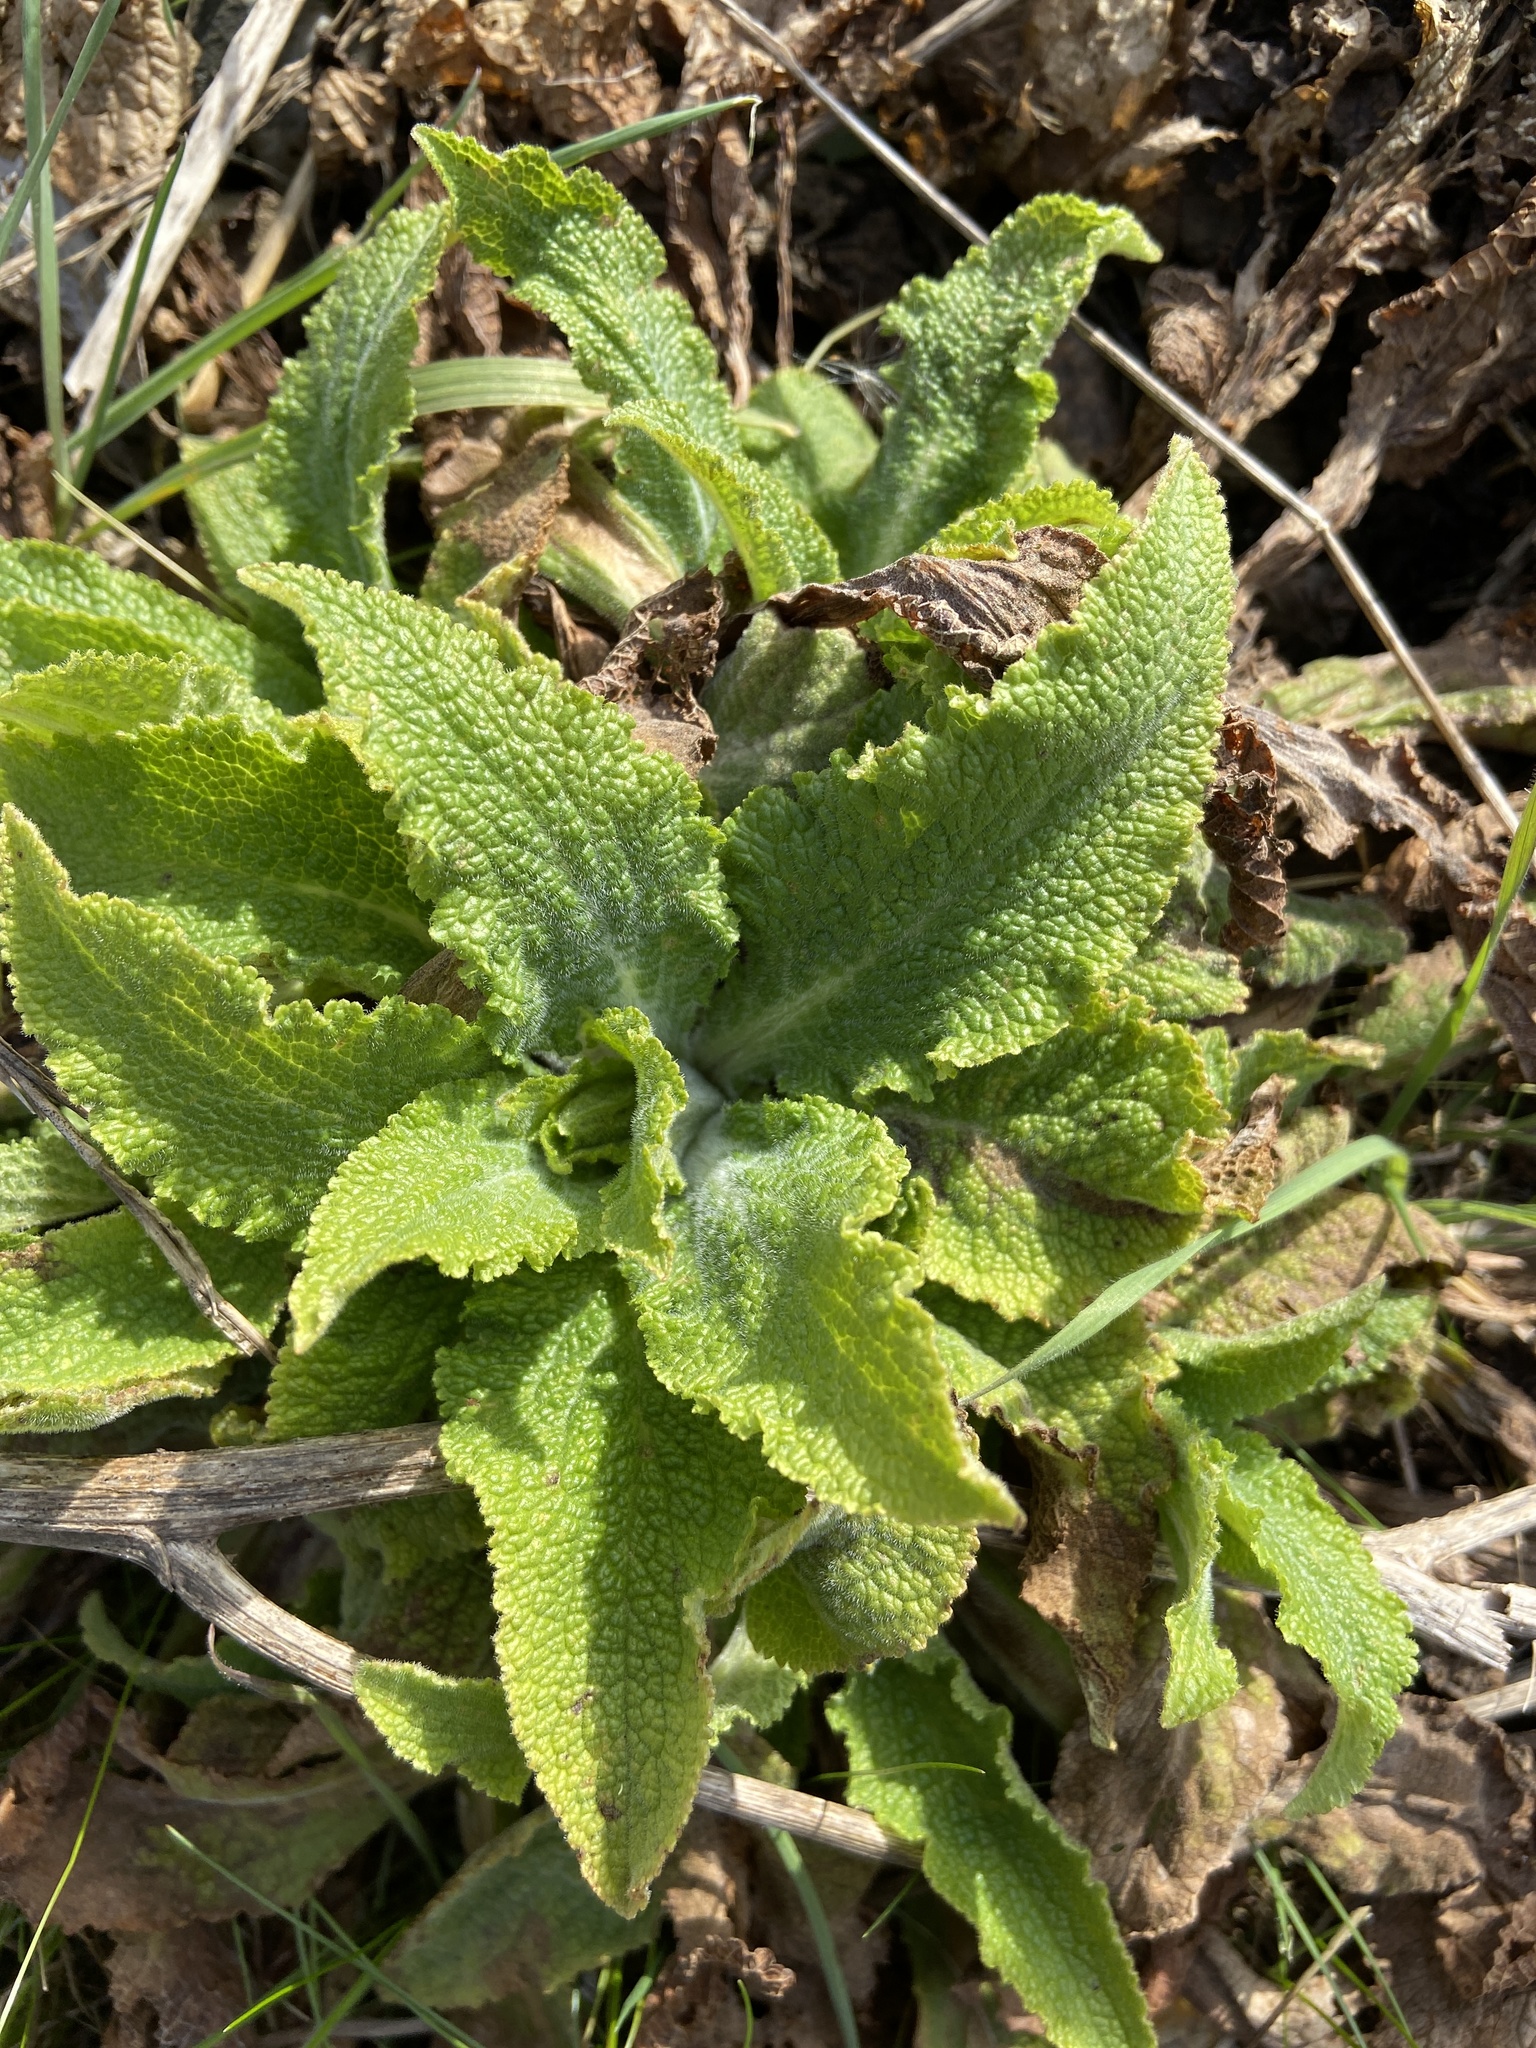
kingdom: Plantae
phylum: Tracheophyta
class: Magnoliopsida
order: Lamiales
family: Plantaginaceae
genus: Digitalis
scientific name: Digitalis purpurea
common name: Foxglove
